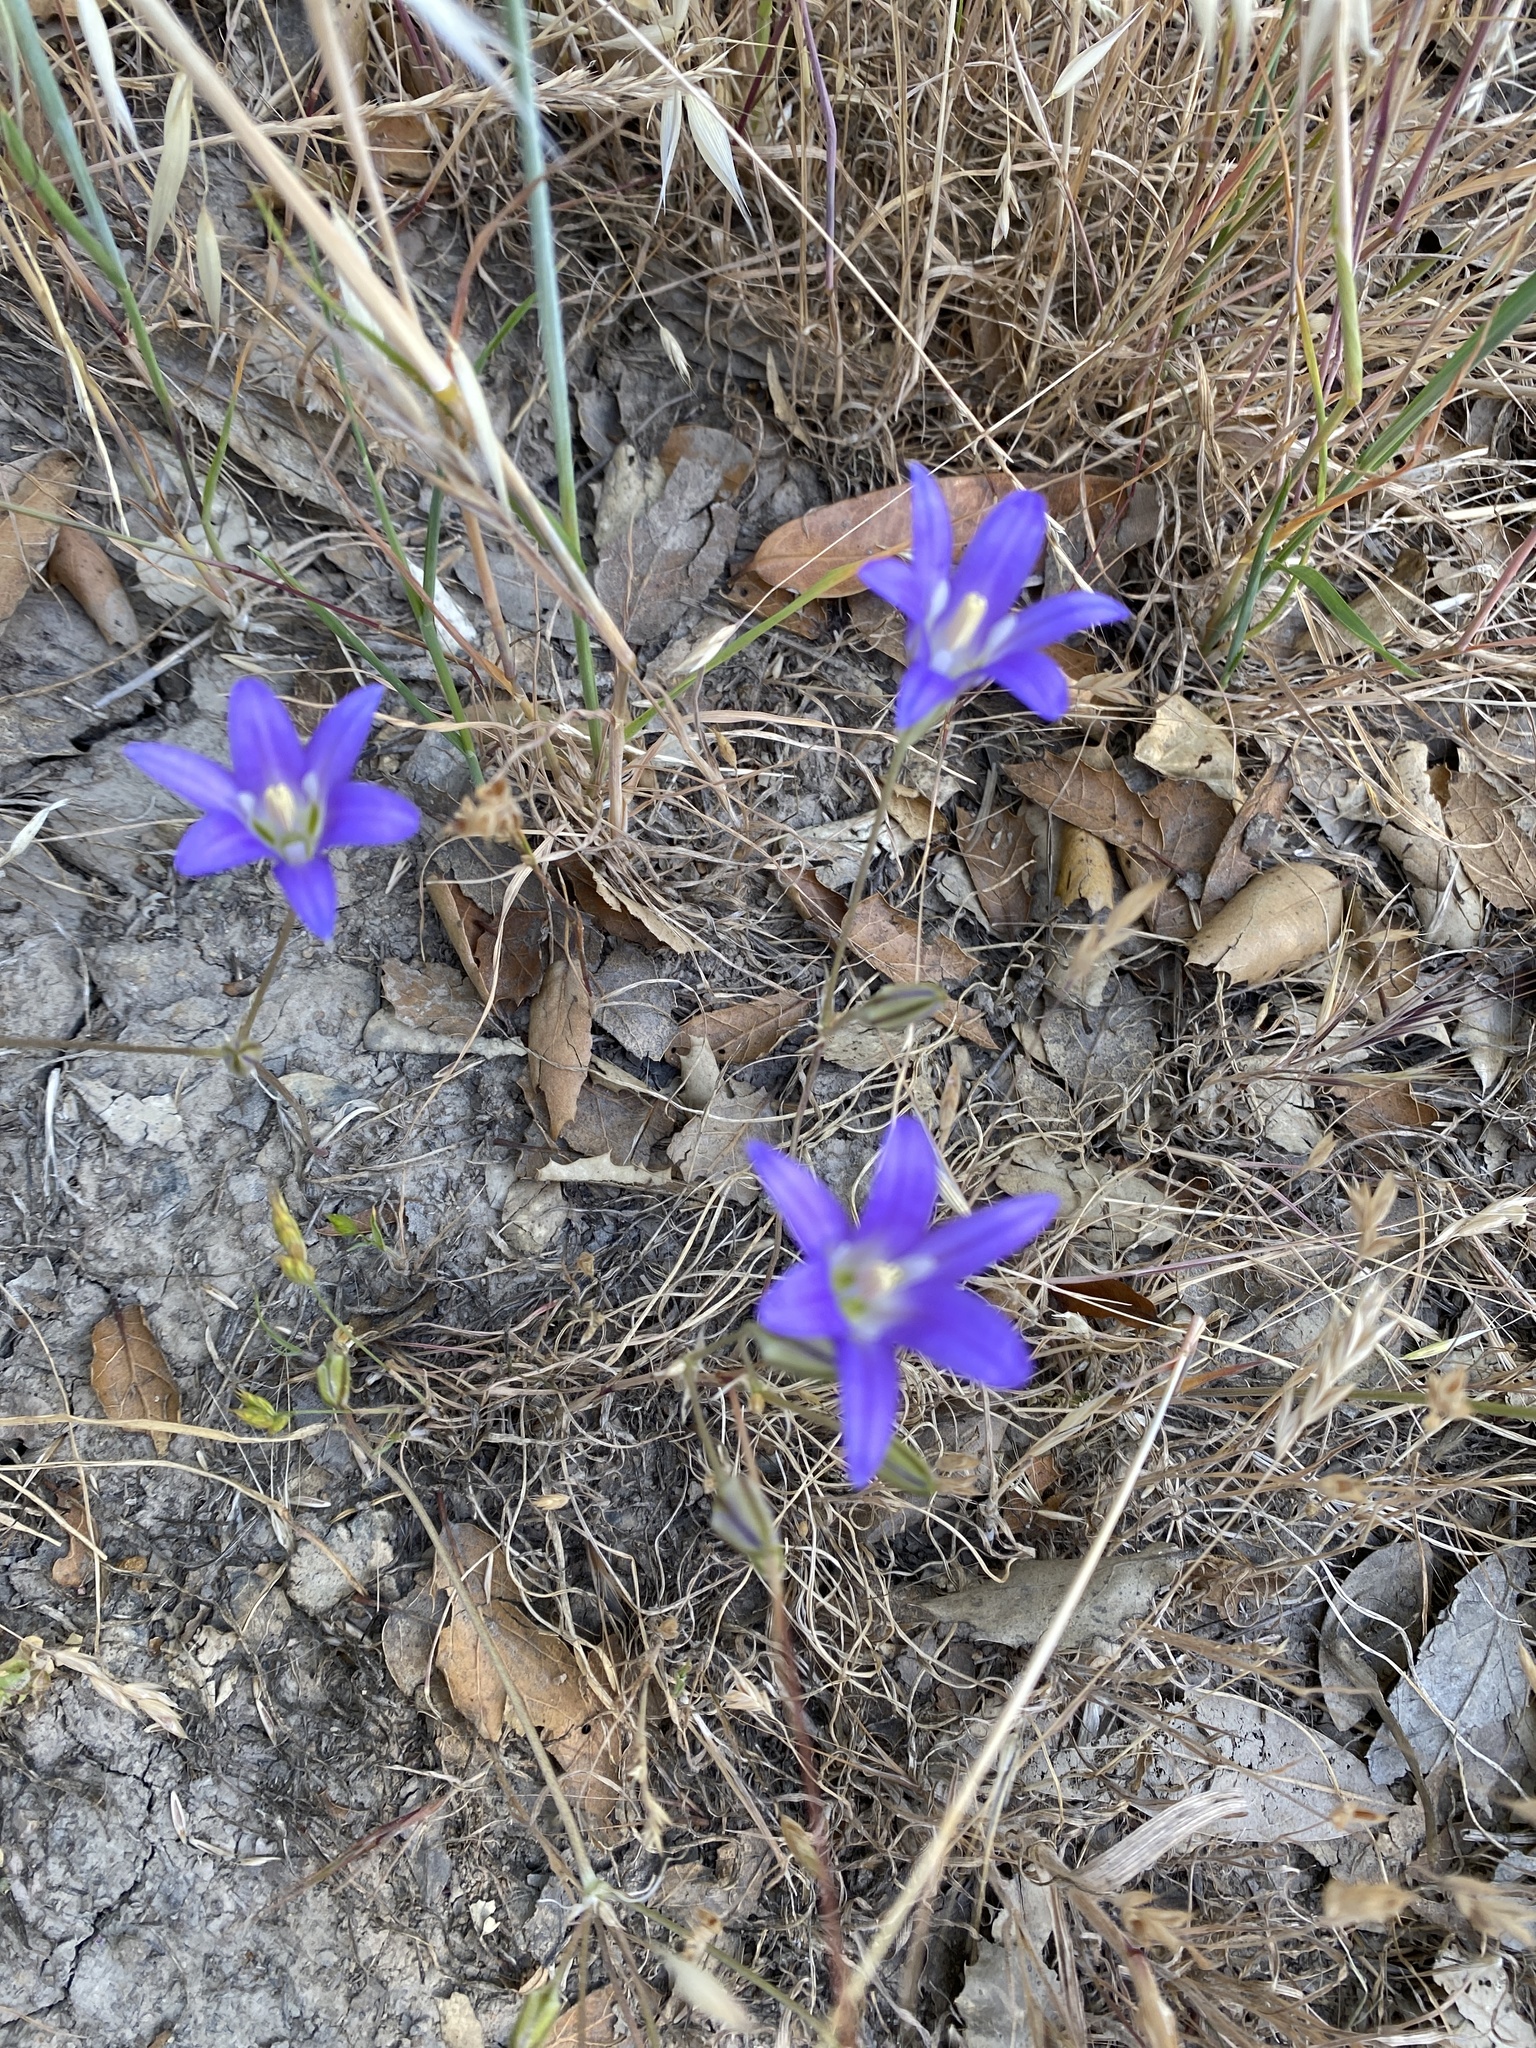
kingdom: Plantae
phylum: Tracheophyta
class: Liliopsida
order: Asparagales
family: Asparagaceae
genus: Brodiaea
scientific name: Brodiaea elegans
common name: Elegant cluster-lily
